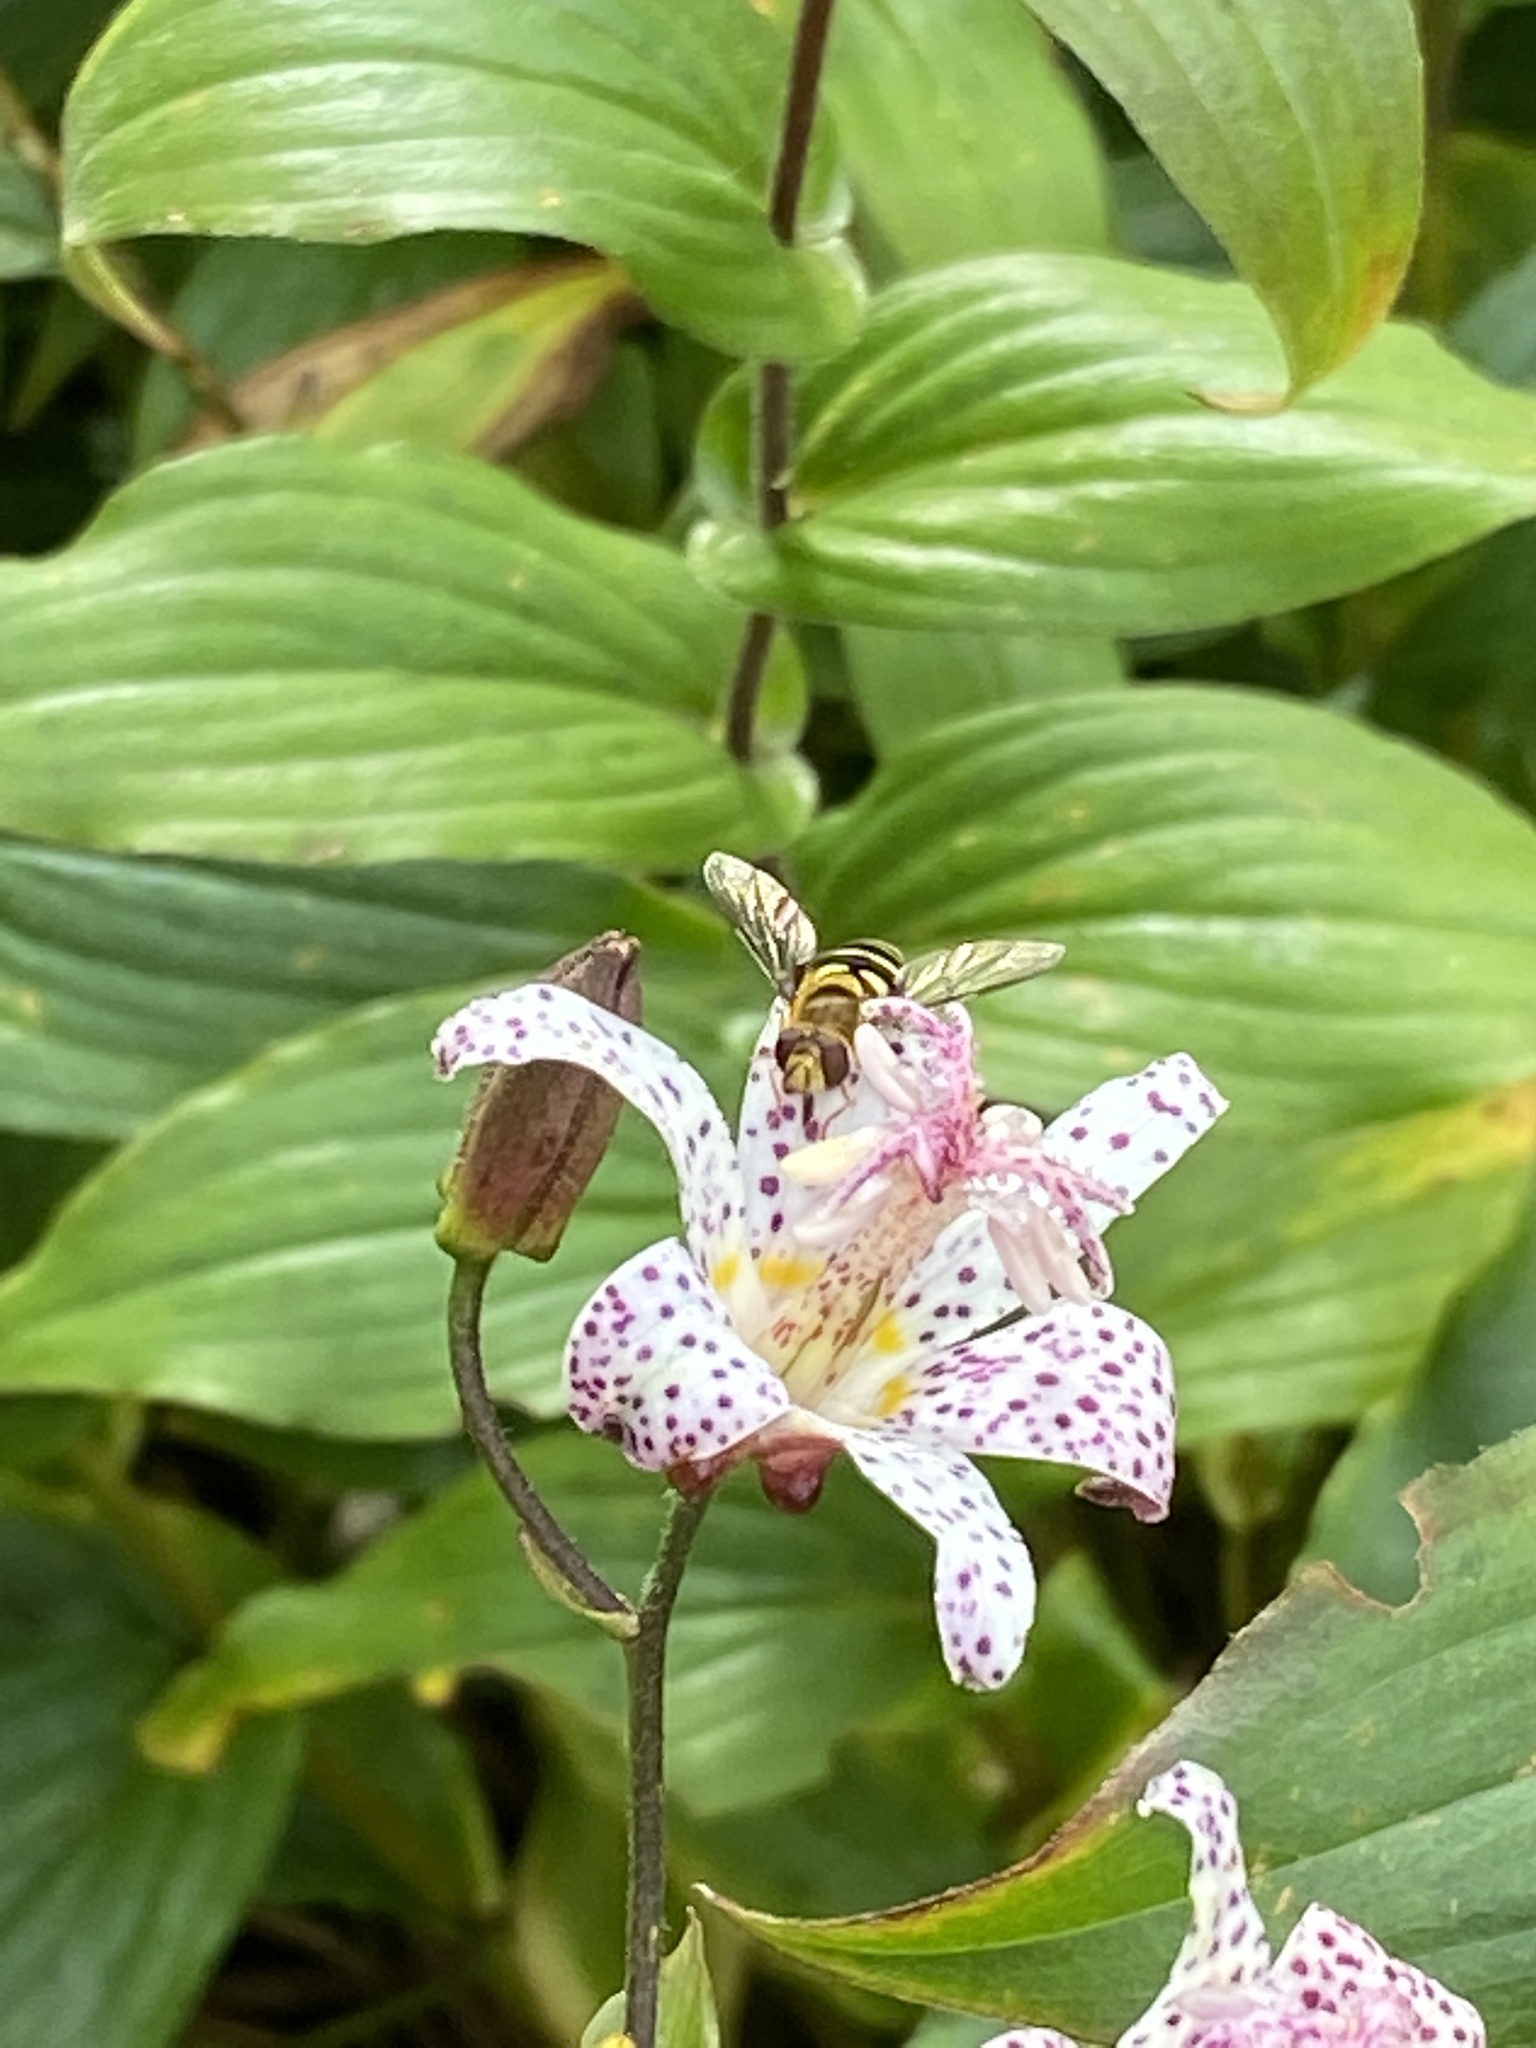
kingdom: Animalia
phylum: Arthropoda
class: Insecta
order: Diptera
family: Syrphidae
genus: Syrphus
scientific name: Syrphus opinator
